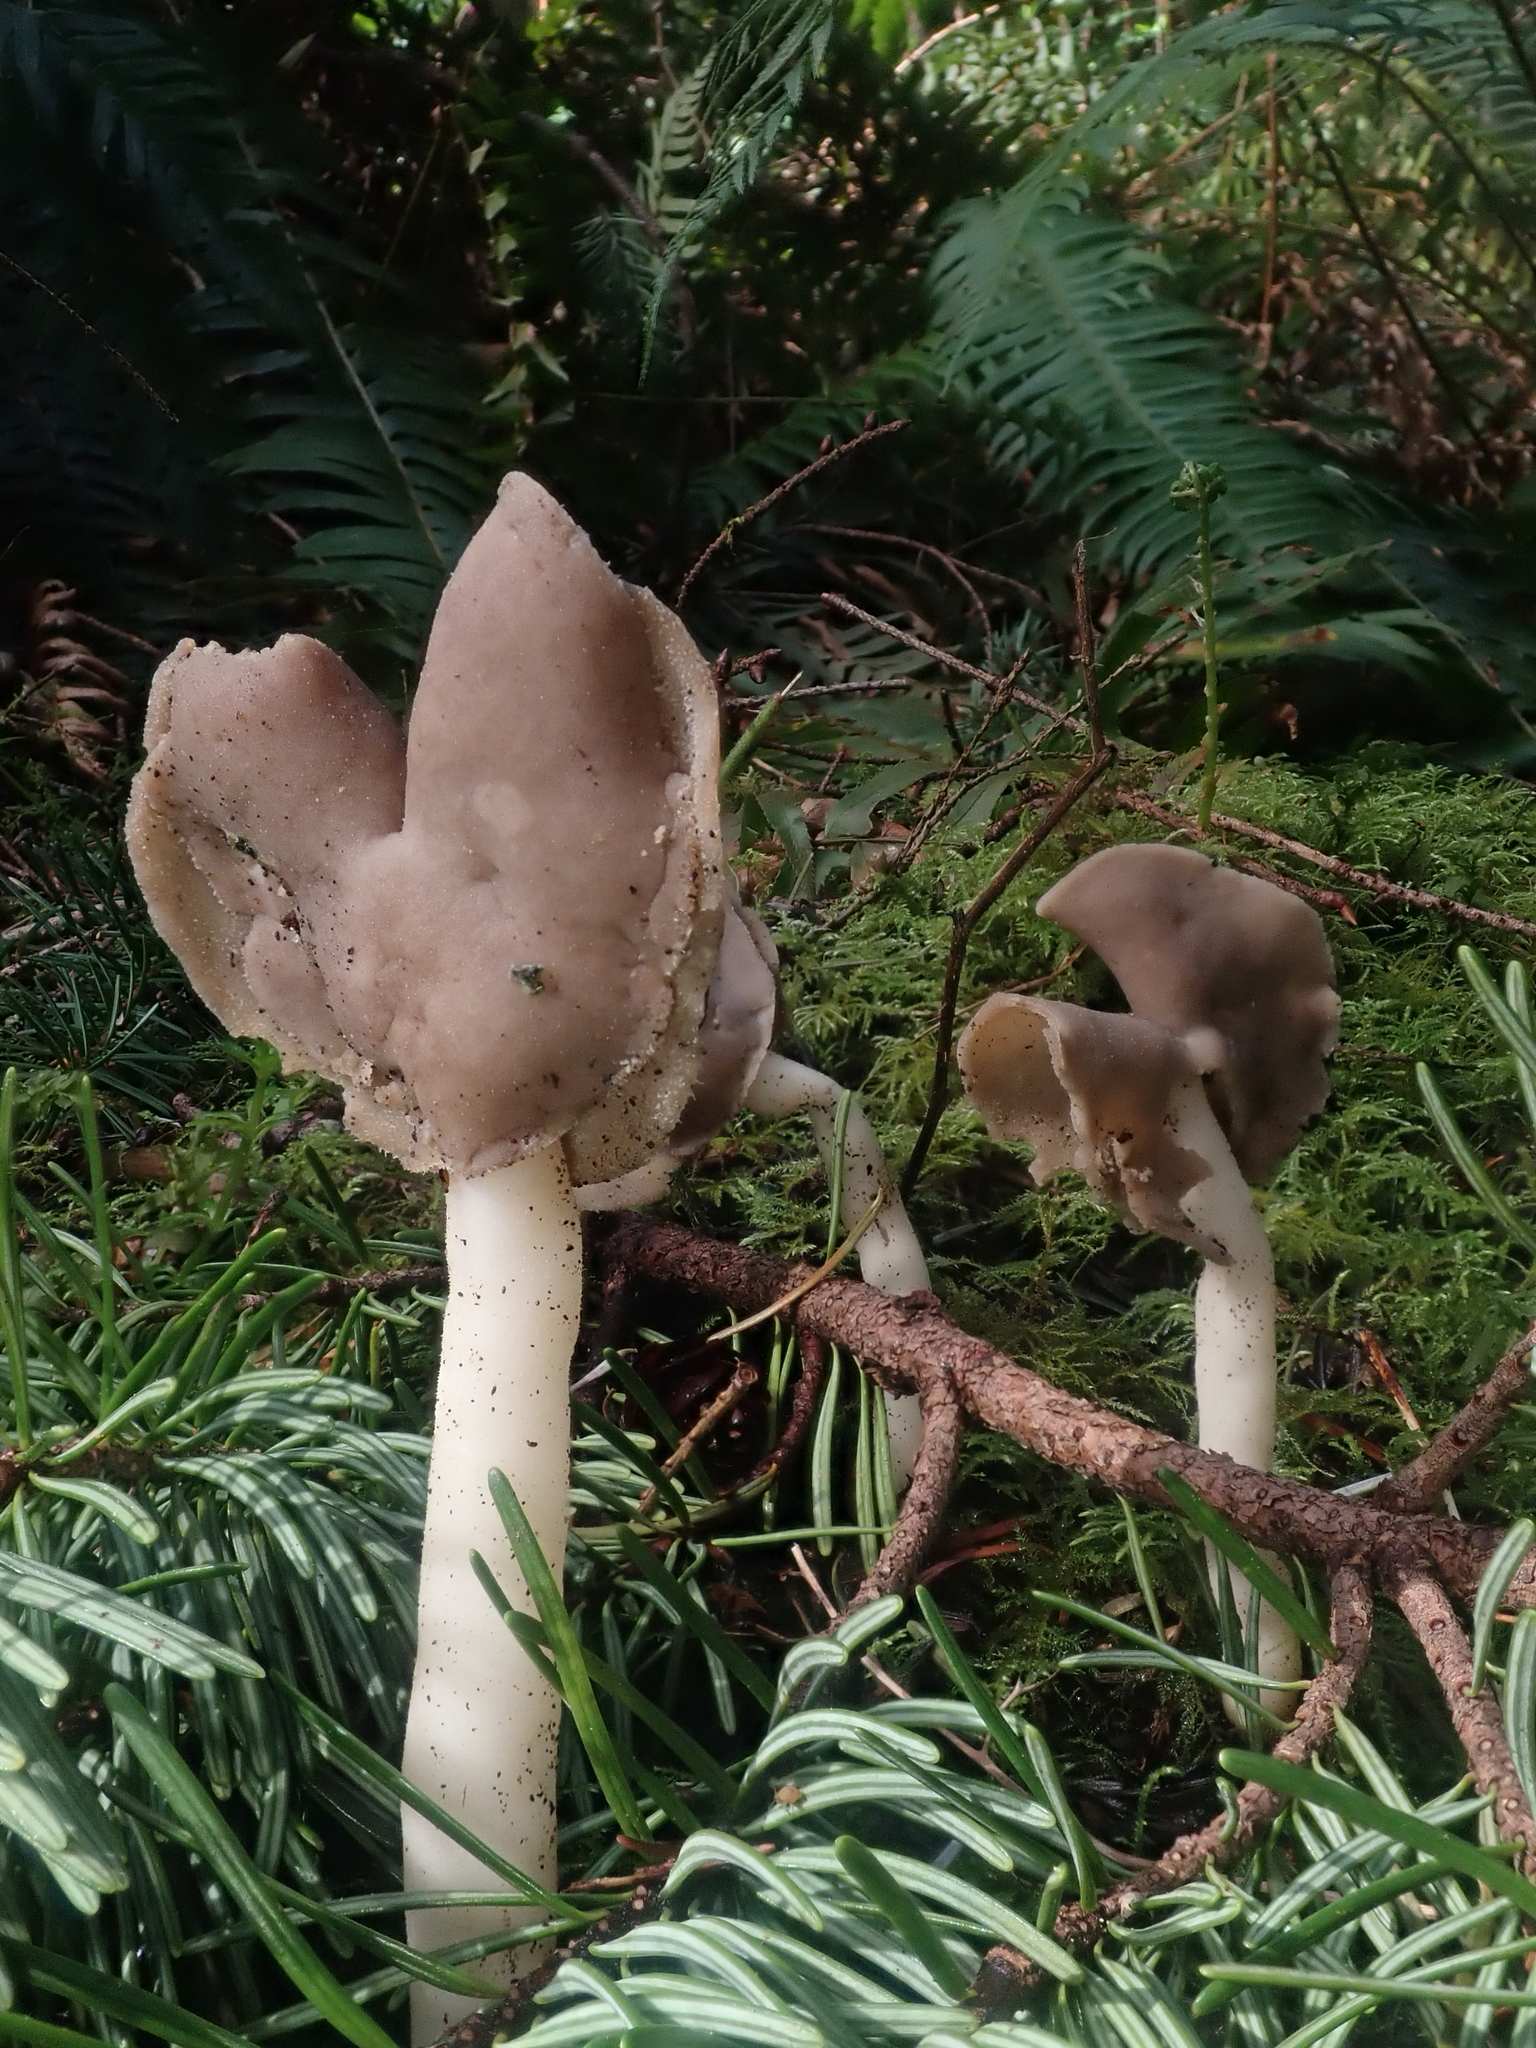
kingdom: Fungi
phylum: Ascomycota
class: Pezizomycetes
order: Pezizales
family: Helvellaceae
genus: Helvella
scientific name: Helvella compressa
